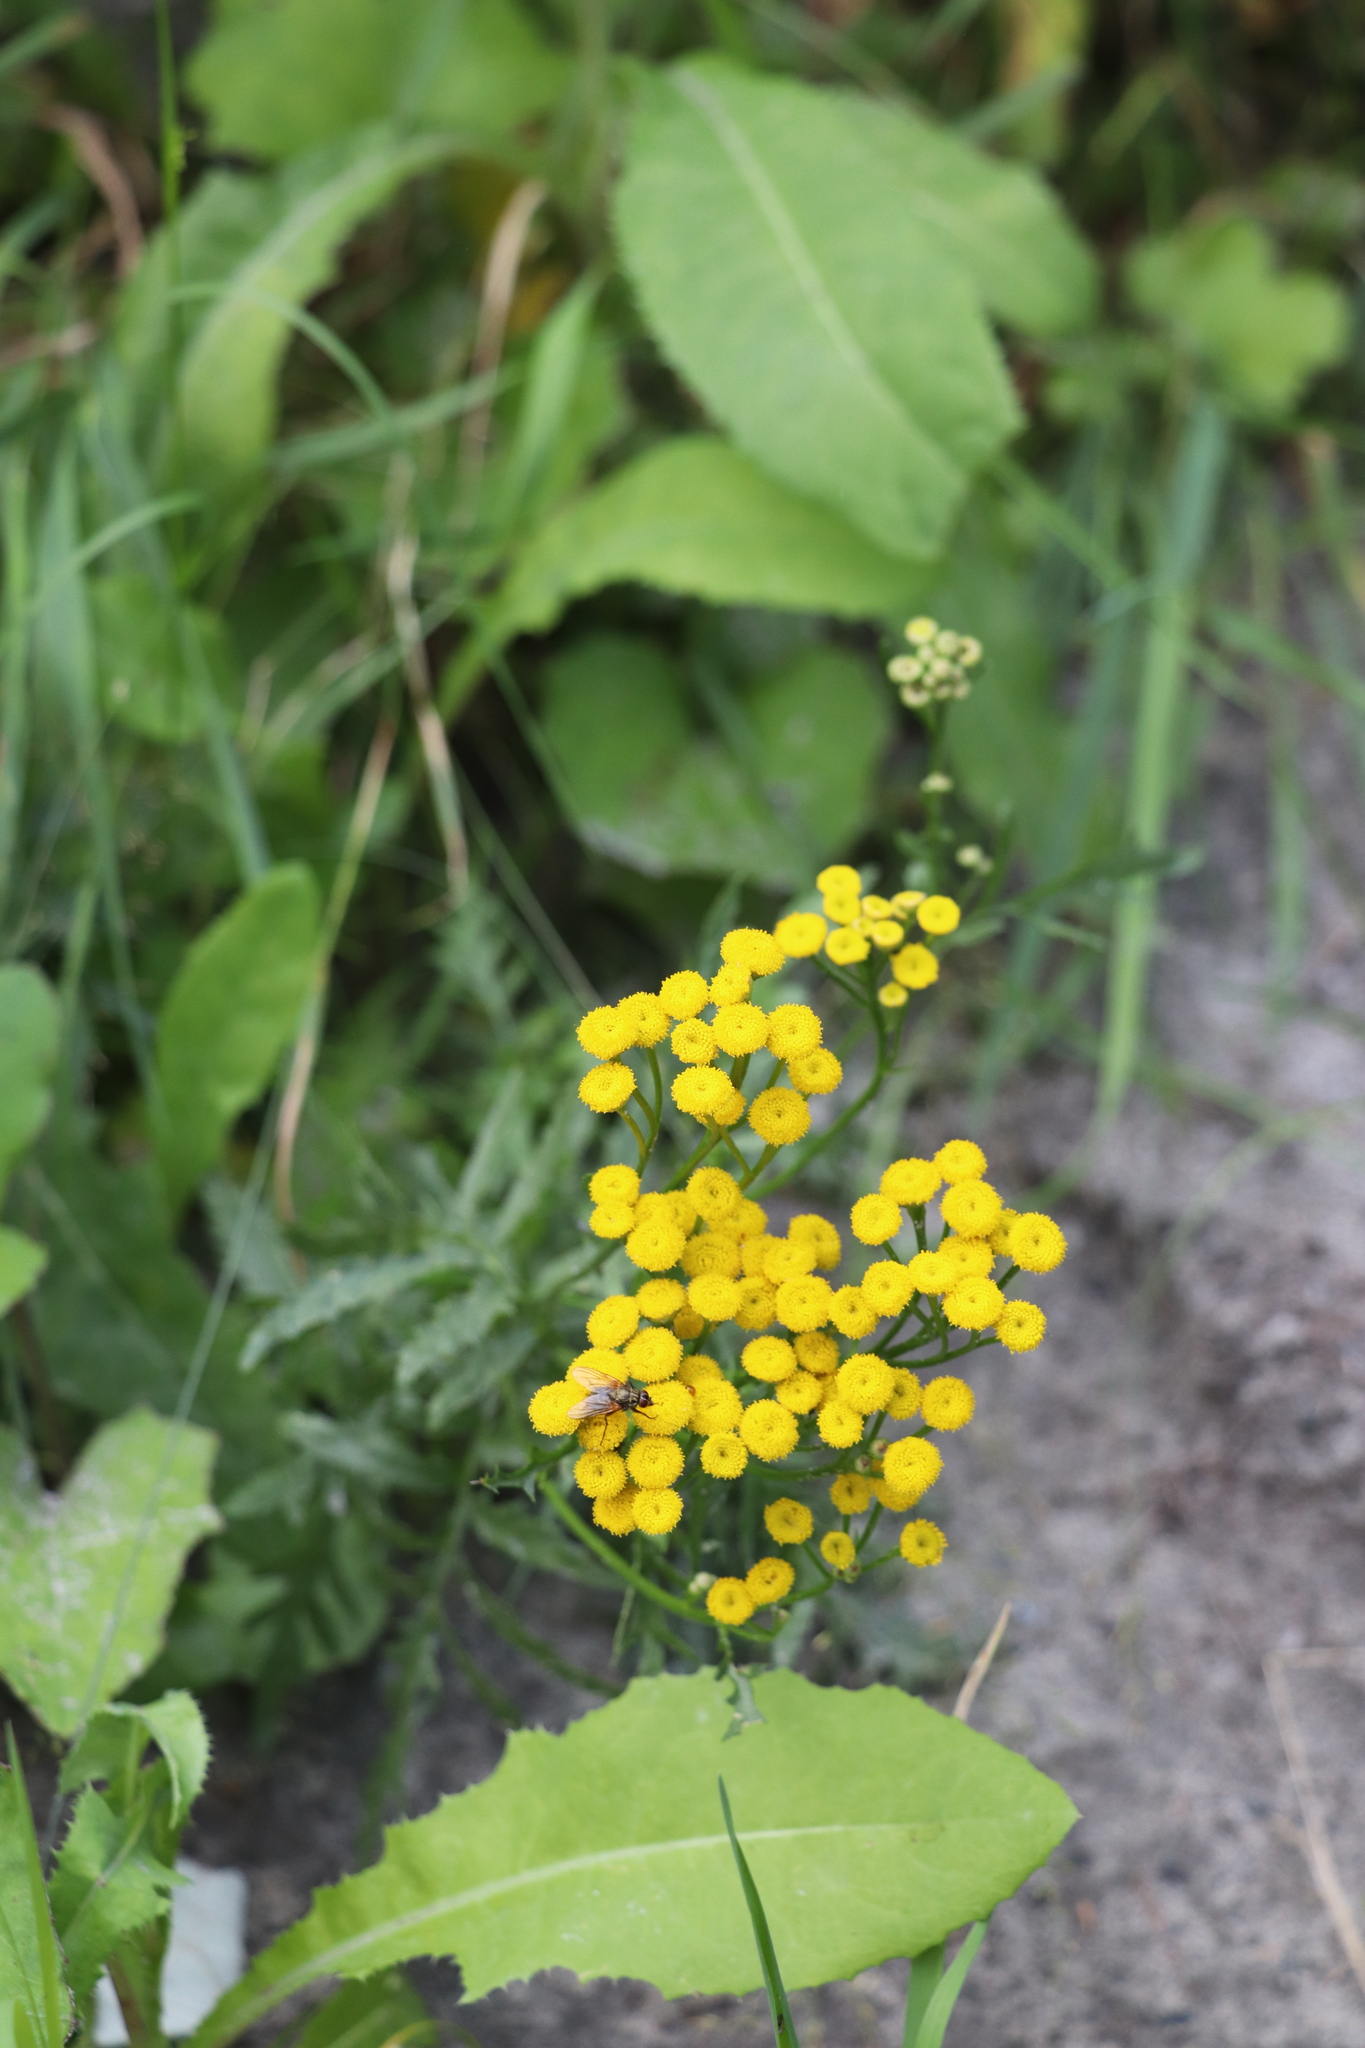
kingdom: Plantae
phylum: Tracheophyta
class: Magnoliopsida
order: Asterales
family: Asteraceae
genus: Tanacetum
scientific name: Tanacetum vulgare
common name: Common tansy
